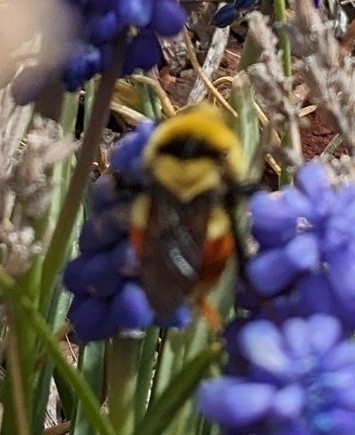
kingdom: Animalia
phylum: Arthropoda
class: Insecta
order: Hymenoptera
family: Apidae
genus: Bombus
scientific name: Bombus huntii
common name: Hunt bumble bee
